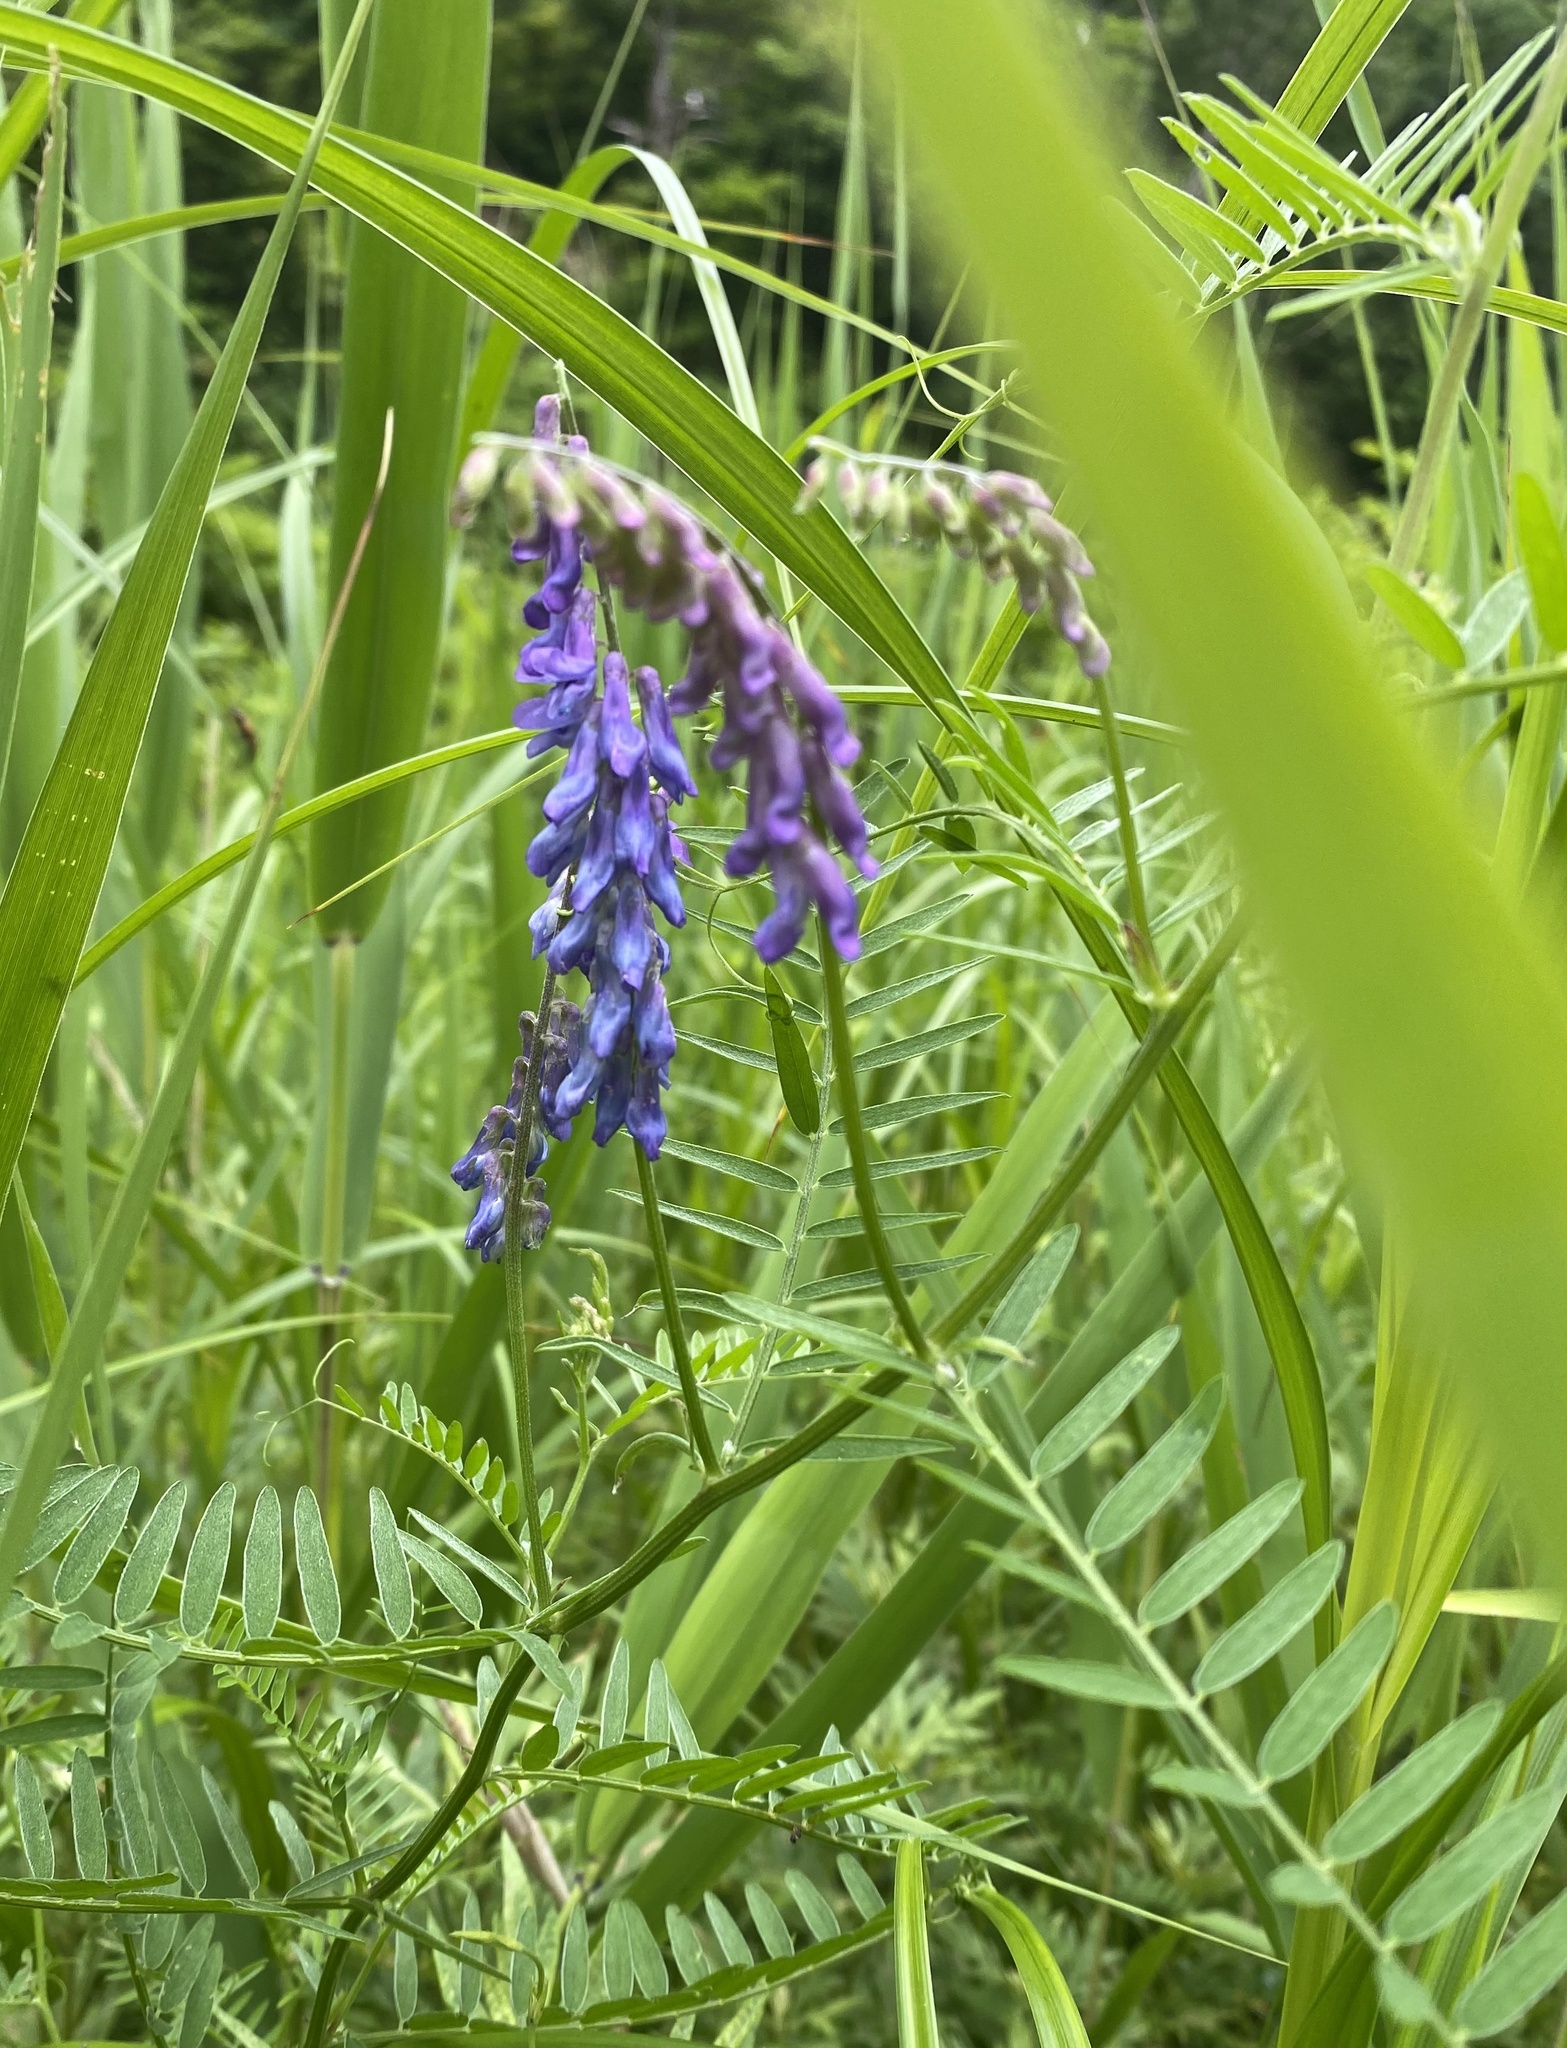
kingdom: Plantae
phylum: Tracheophyta
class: Magnoliopsida
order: Fabales
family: Fabaceae
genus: Vicia
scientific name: Vicia cracca
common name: Bird vetch
